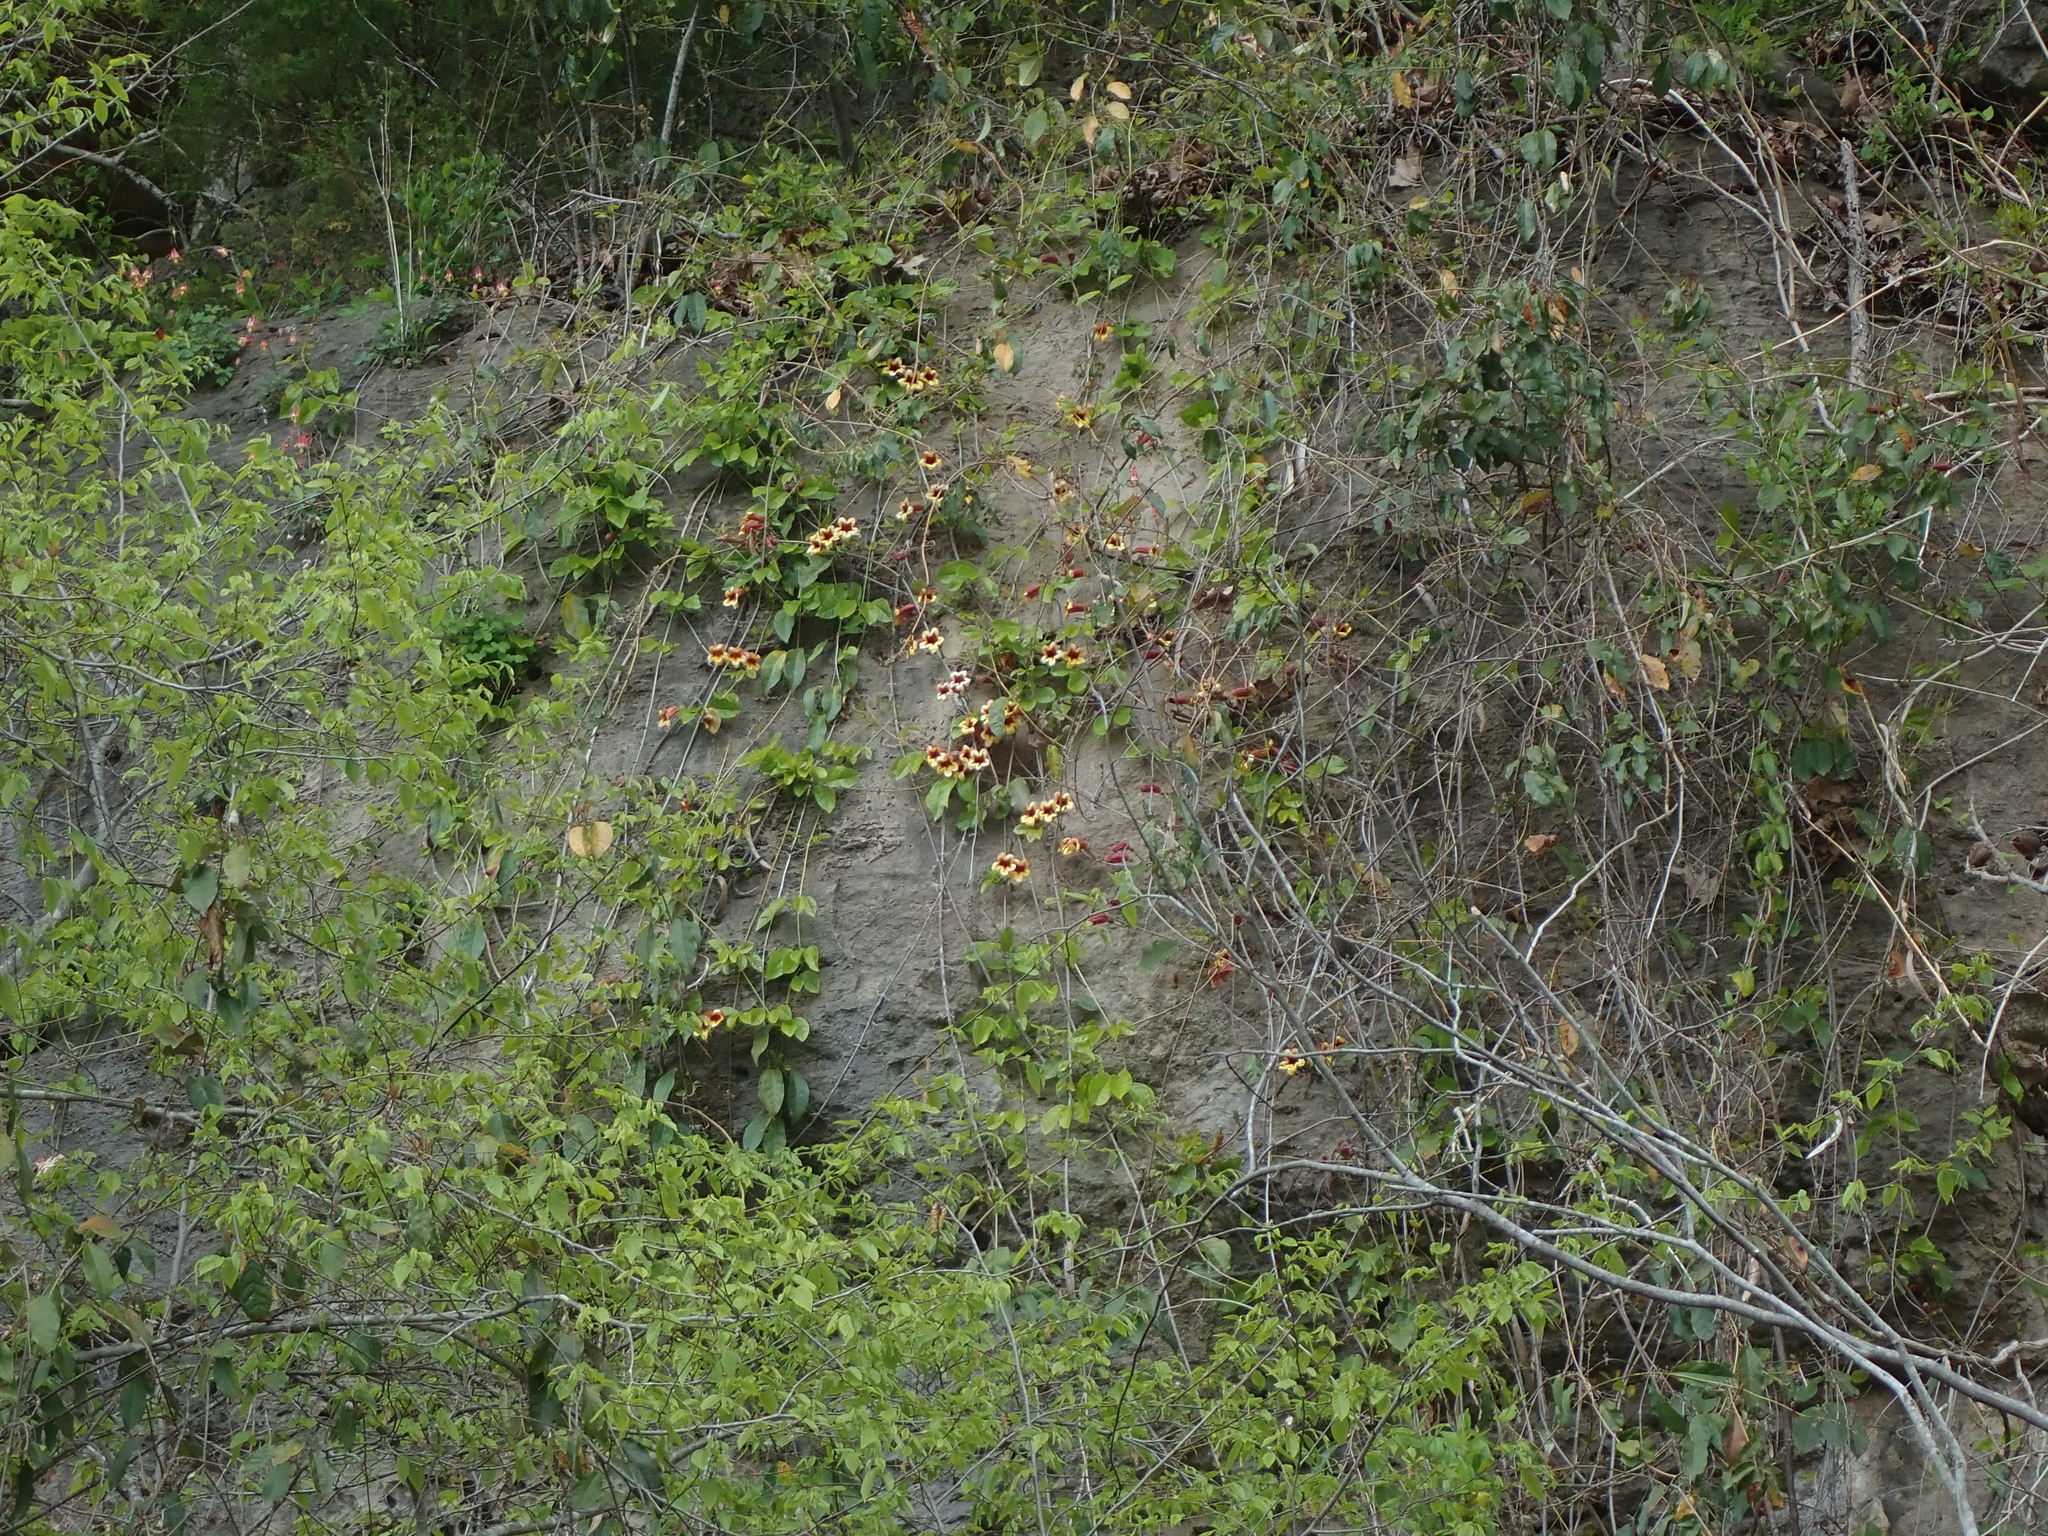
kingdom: Plantae
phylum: Tracheophyta
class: Magnoliopsida
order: Lamiales
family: Bignoniaceae
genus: Bignonia
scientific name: Bignonia capreolata
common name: Crossvine
